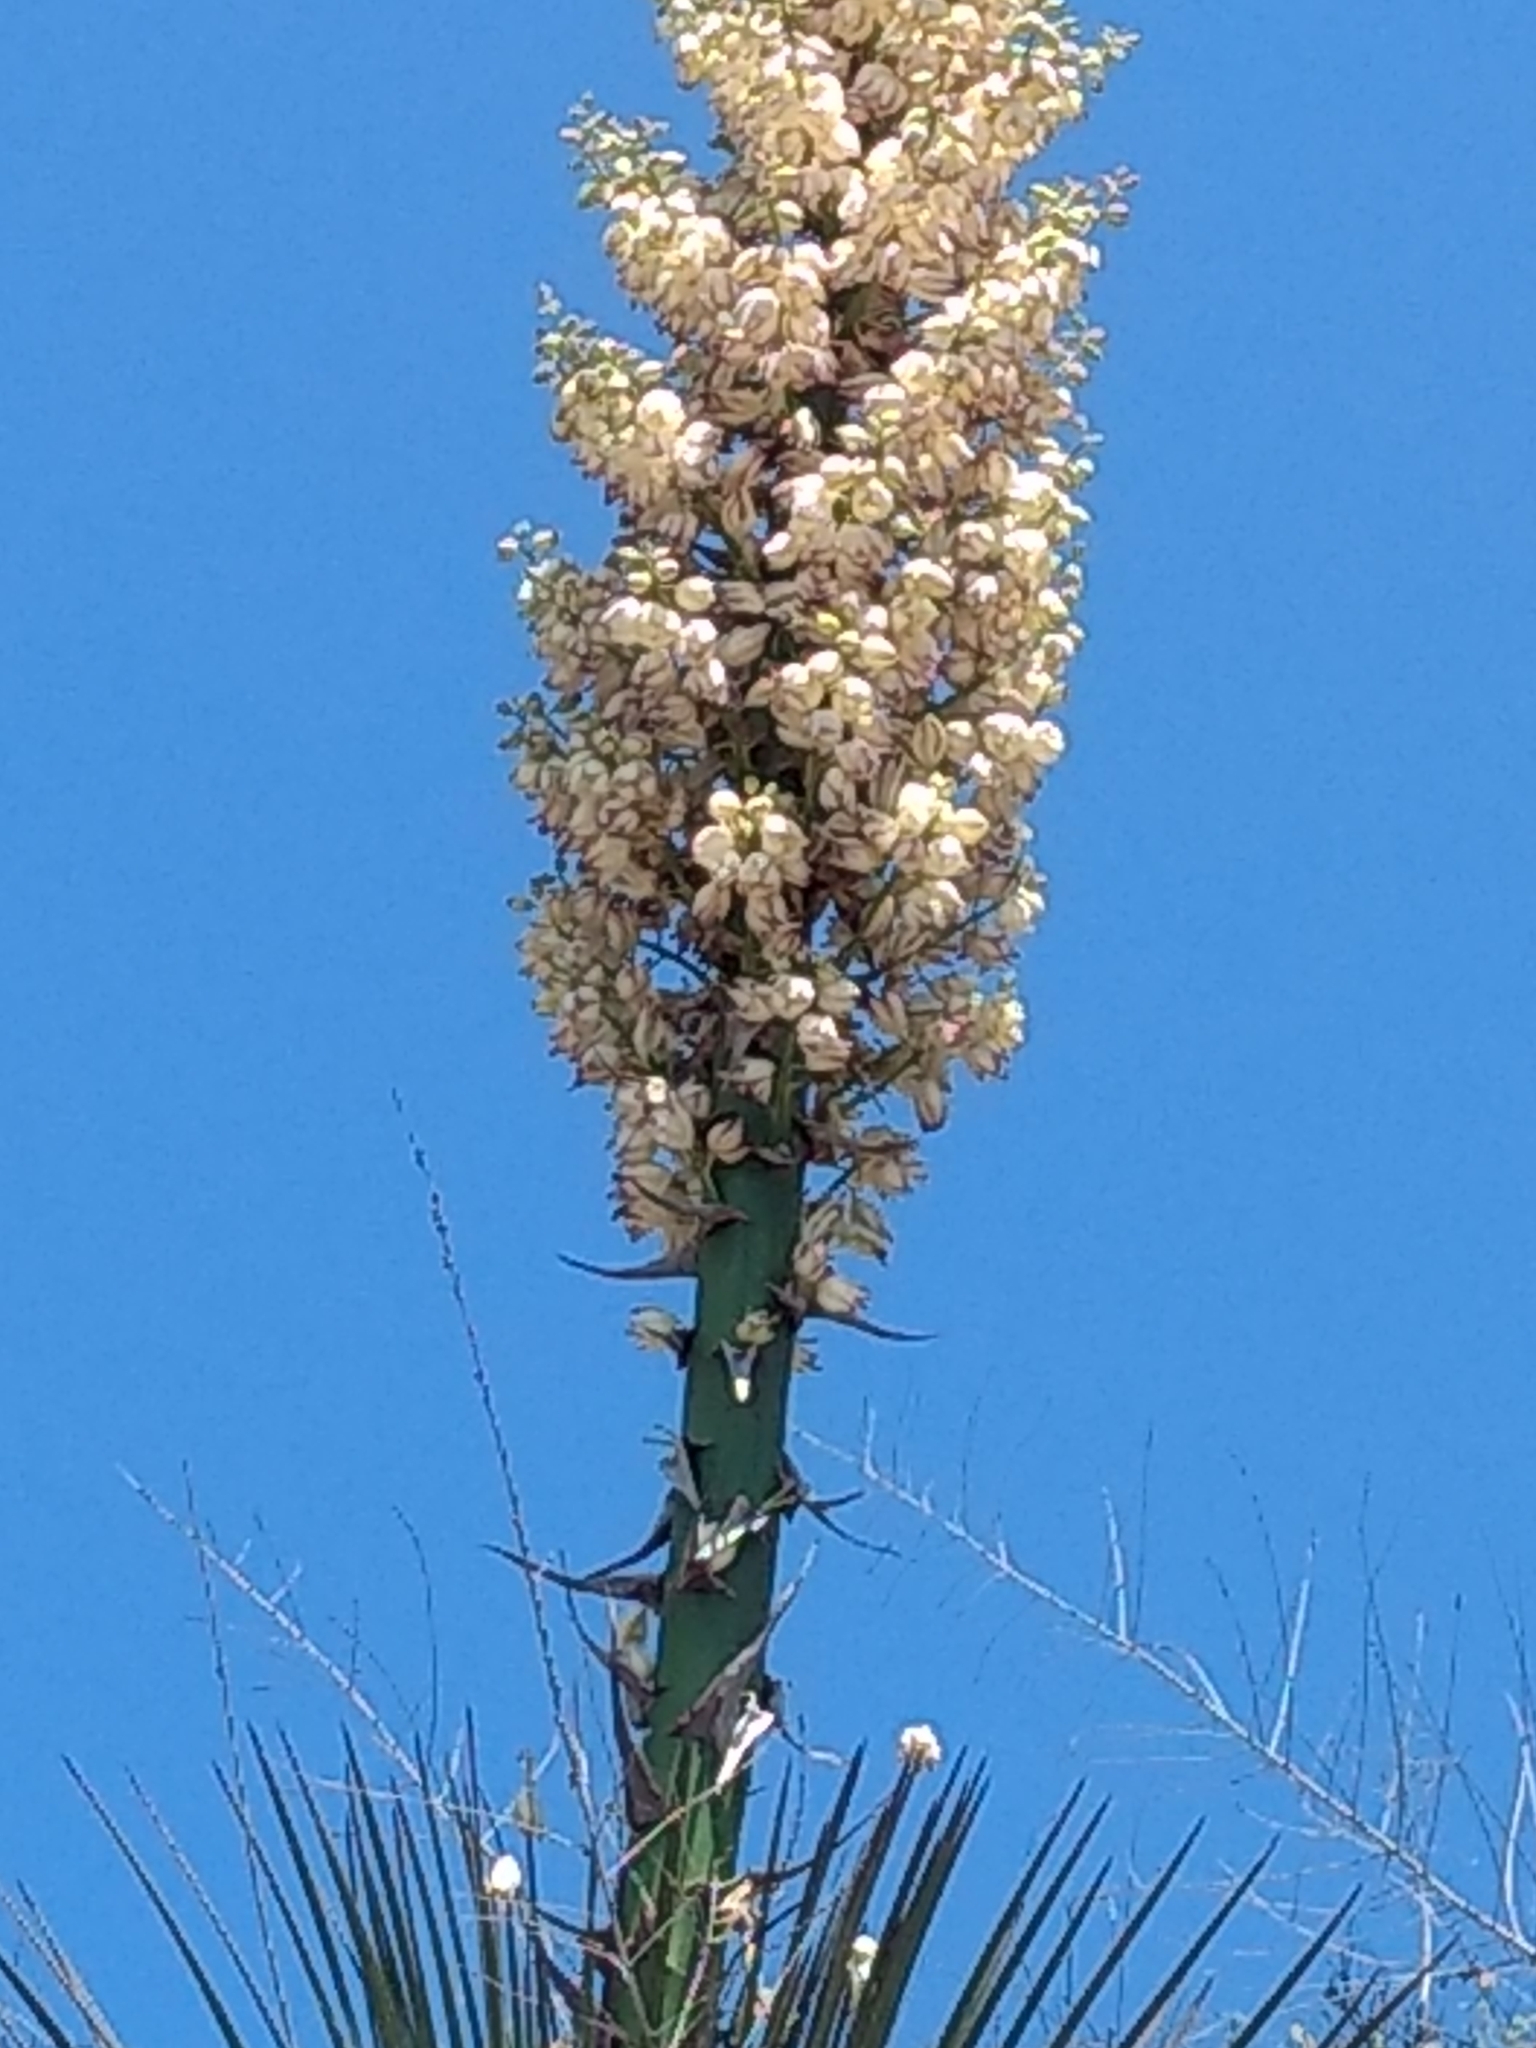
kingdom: Plantae
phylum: Tracheophyta
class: Liliopsida
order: Asparagales
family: Asparagaceae
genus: Hesperoyucca
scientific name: Hesperoyucca whipplei
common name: Our lord's-candle
